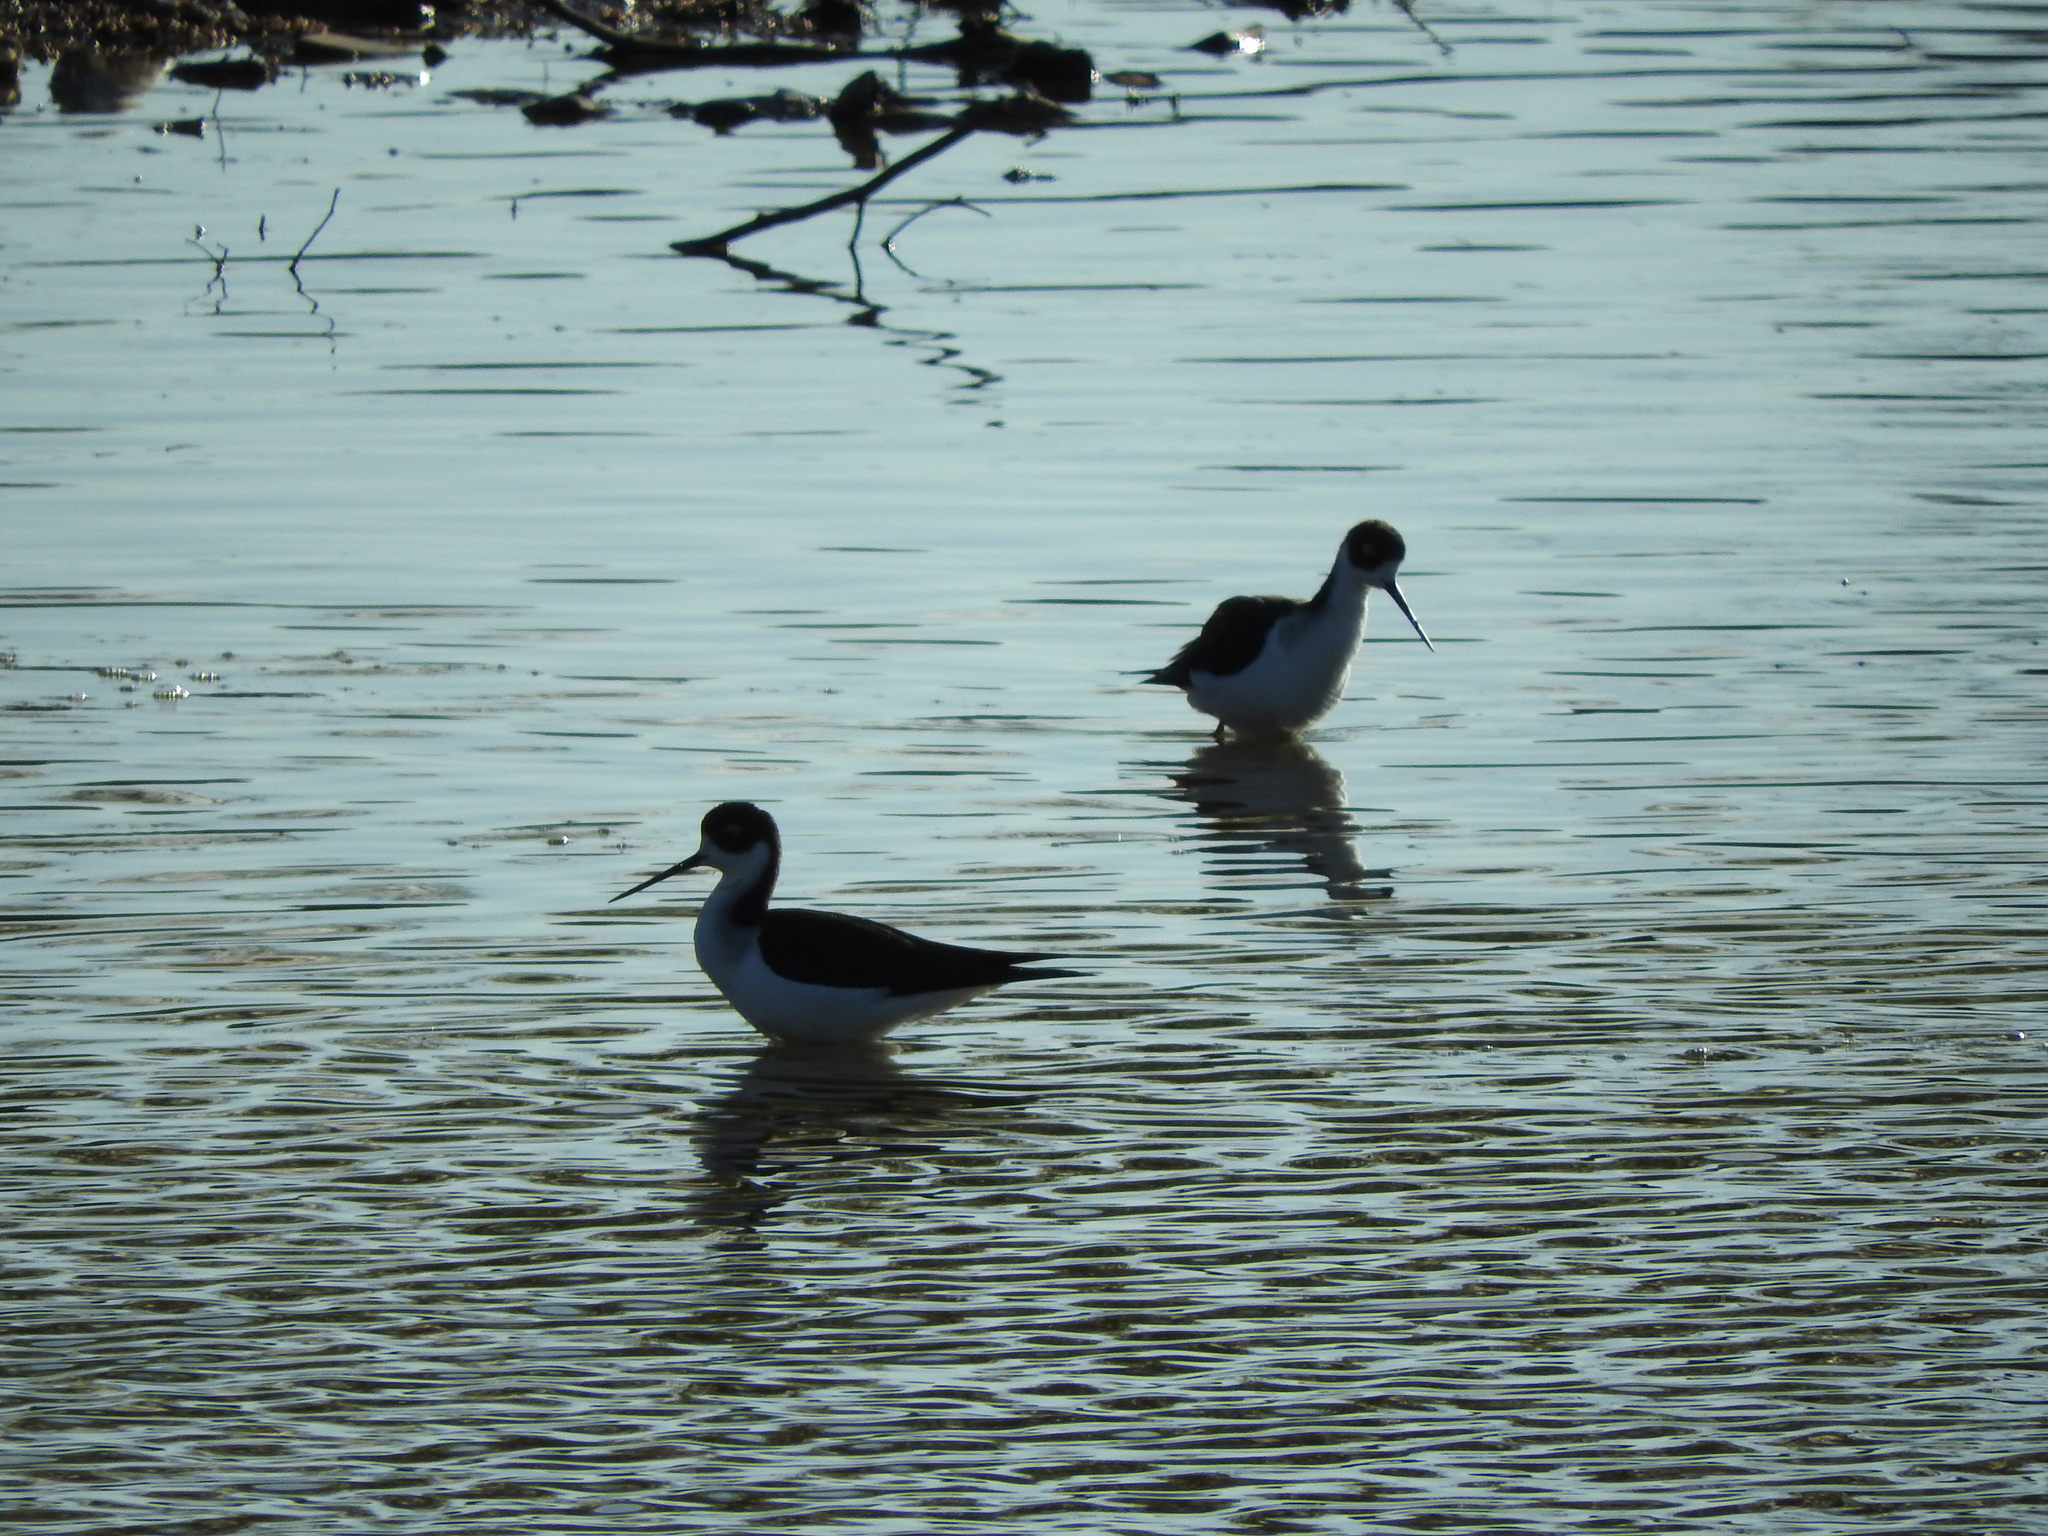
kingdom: Animalia
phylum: Chordata
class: Aves
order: Charadriiformes
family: Recurvirostridae
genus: Himantopus
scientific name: Himantopus mexicanus
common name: Black-necked stilt
